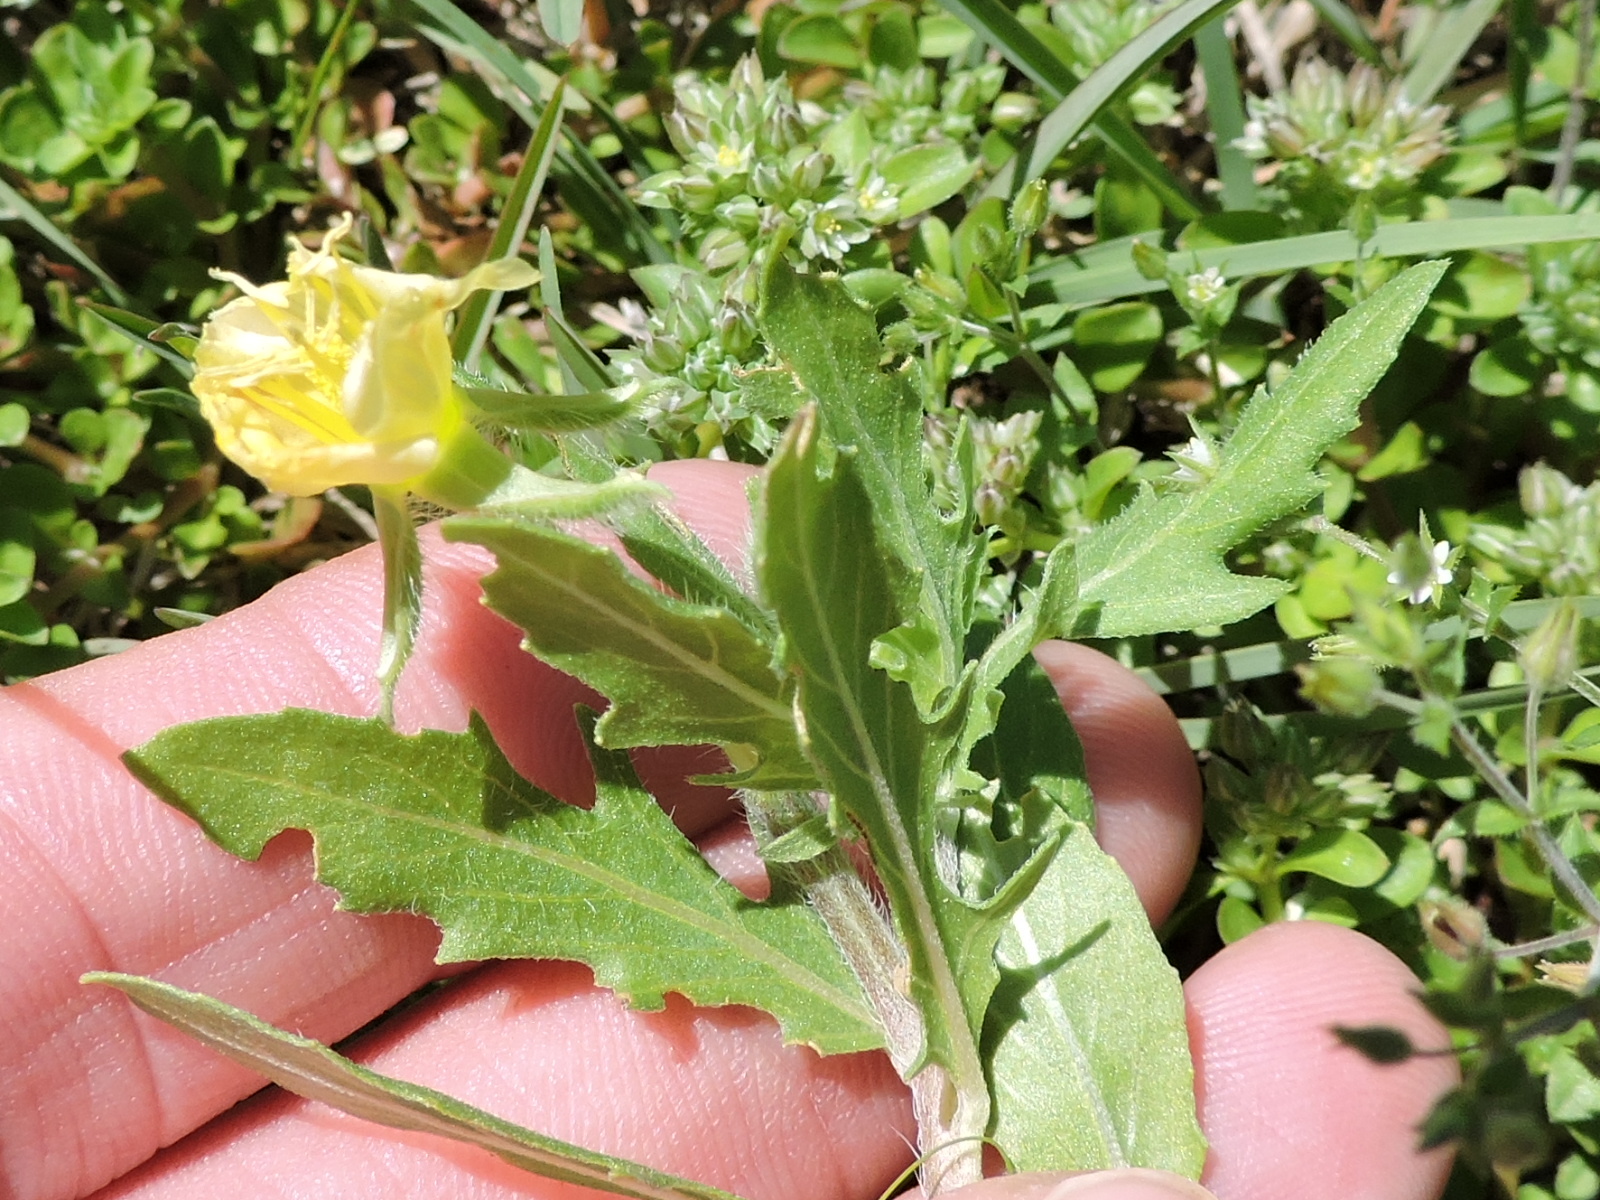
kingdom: Plantae
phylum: Tracheophyta
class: Magnoliopsida
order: Myrtales
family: Onagraceae
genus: Oenothera
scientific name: Oenothera laciniata
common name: Cut-leaved evening-primrose
